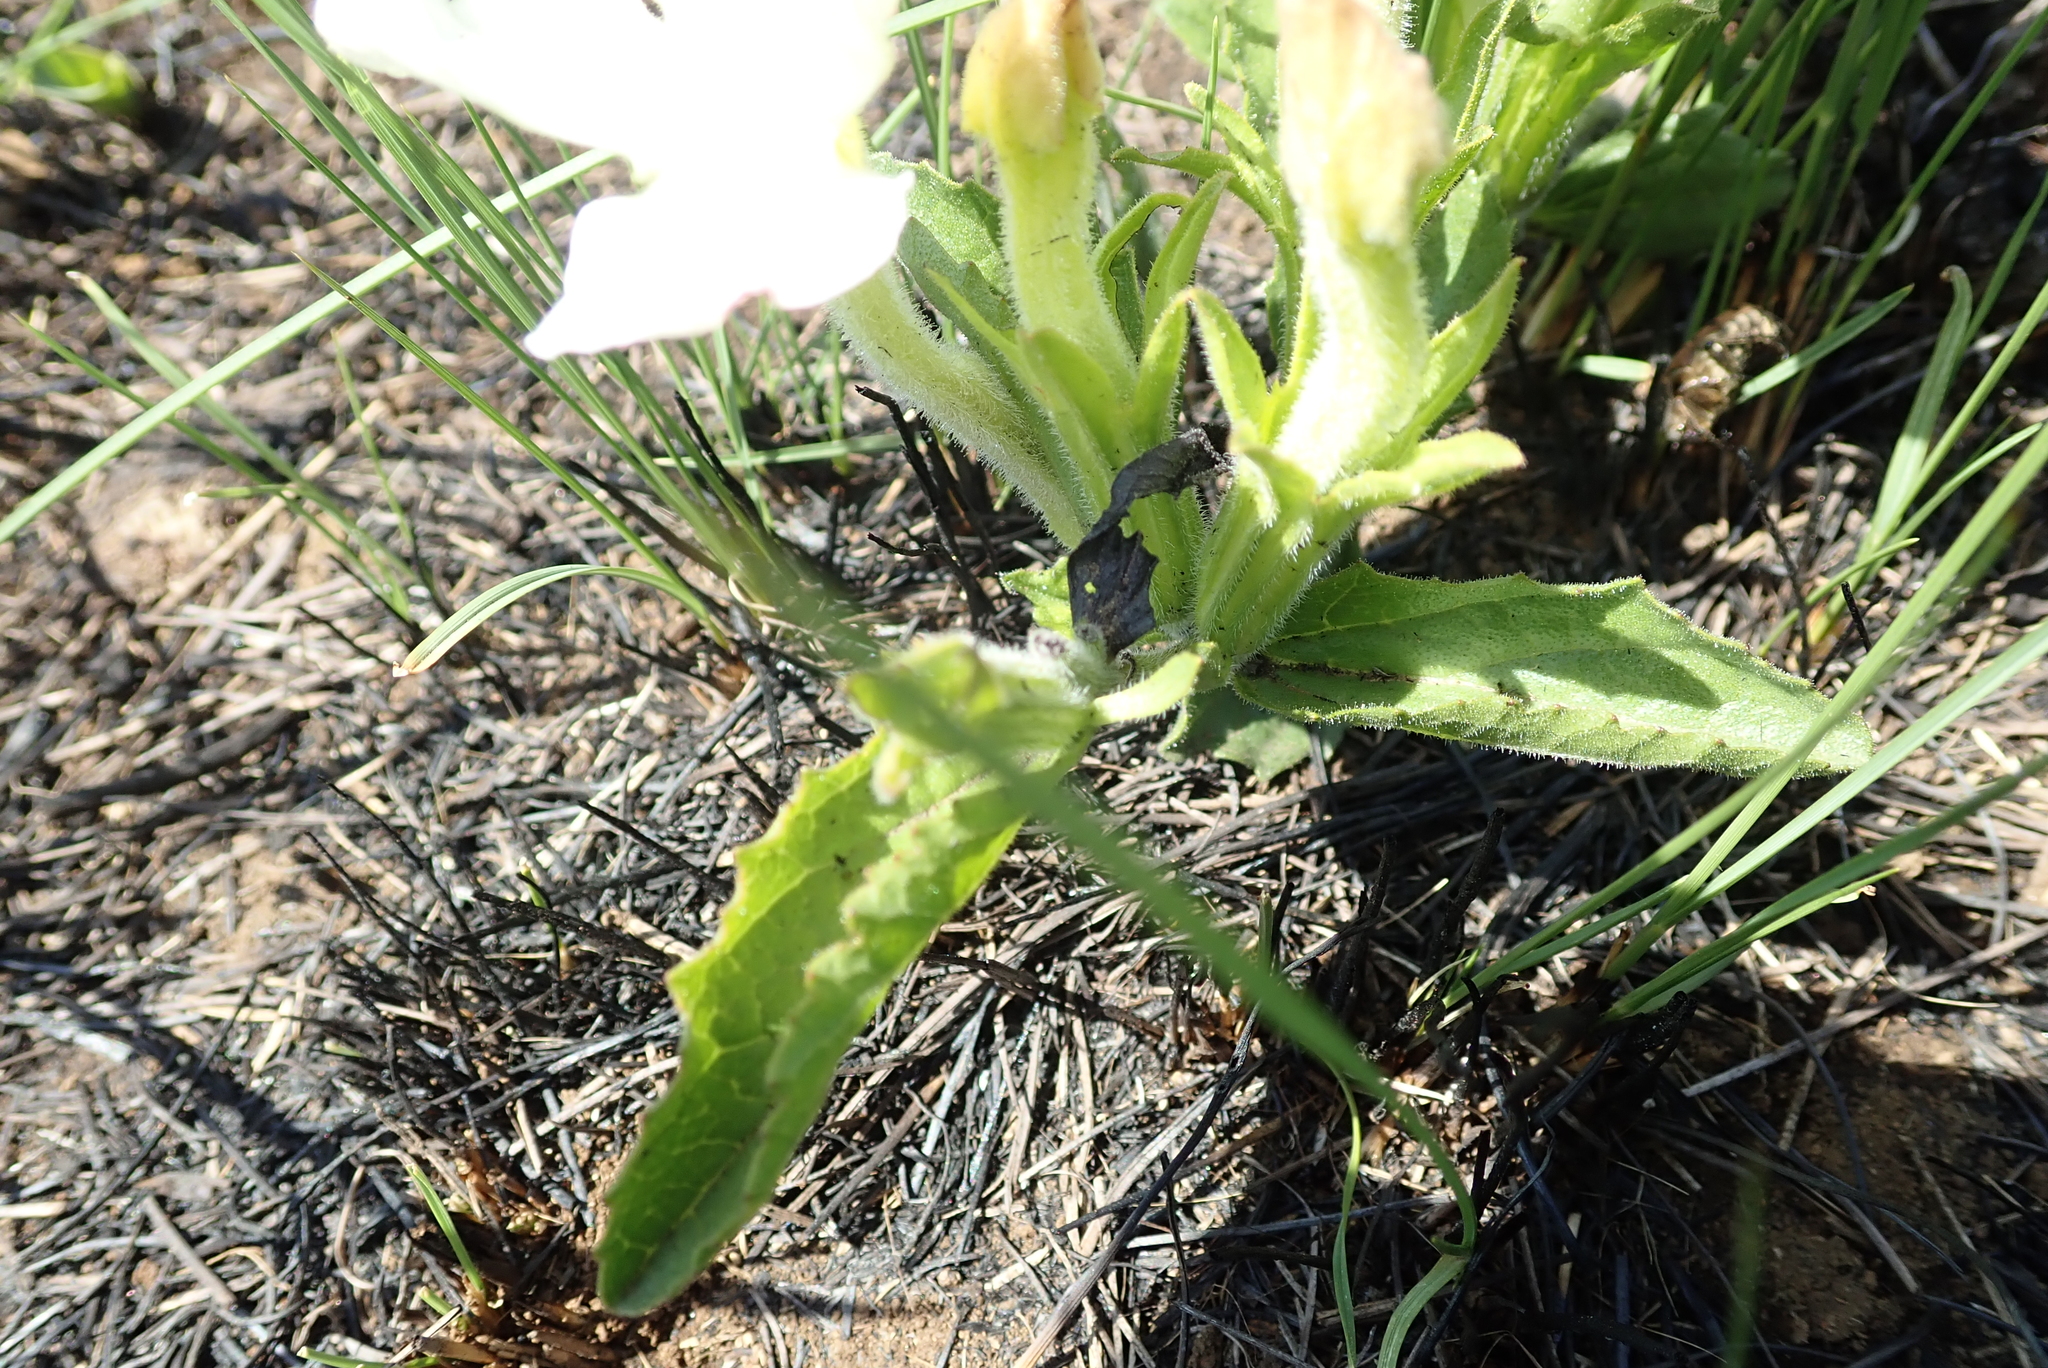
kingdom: Plantae
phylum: Tracheophyta
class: Magnoliopsida
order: Lamiales
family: Orobanchaceae
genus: Cycnium
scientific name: Cycnium adonense
